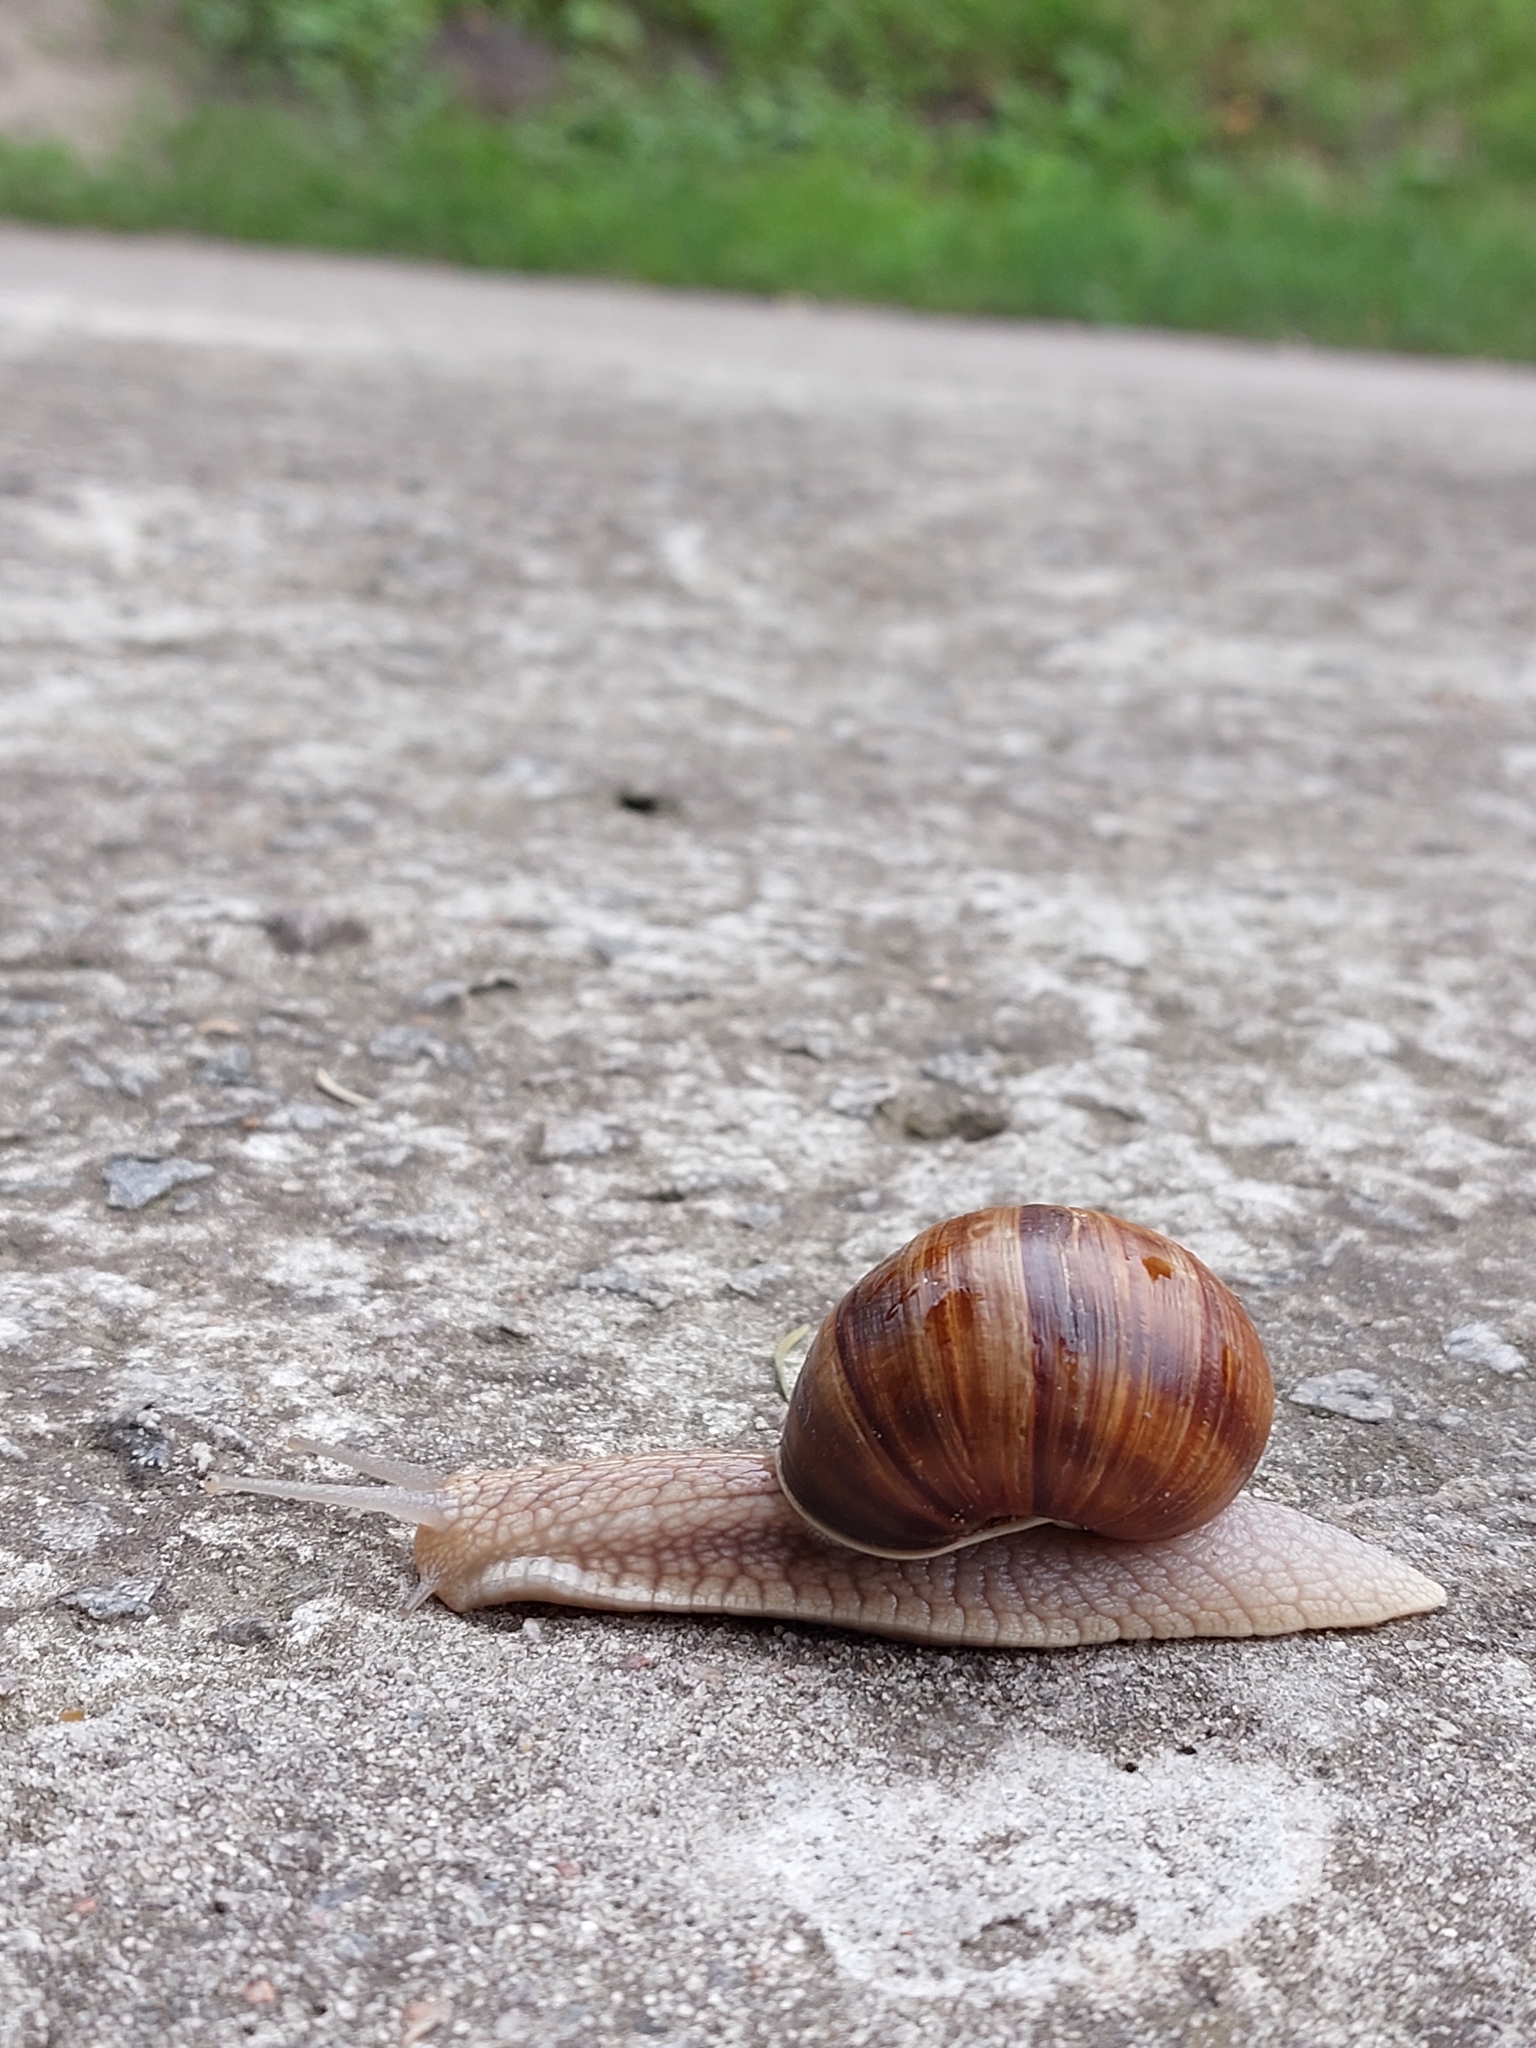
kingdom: Animalia
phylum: Mollusca
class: Gastropoda
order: Stylommatophora
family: Helicidae
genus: Helix
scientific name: Helix pomatia
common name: Roman snail
